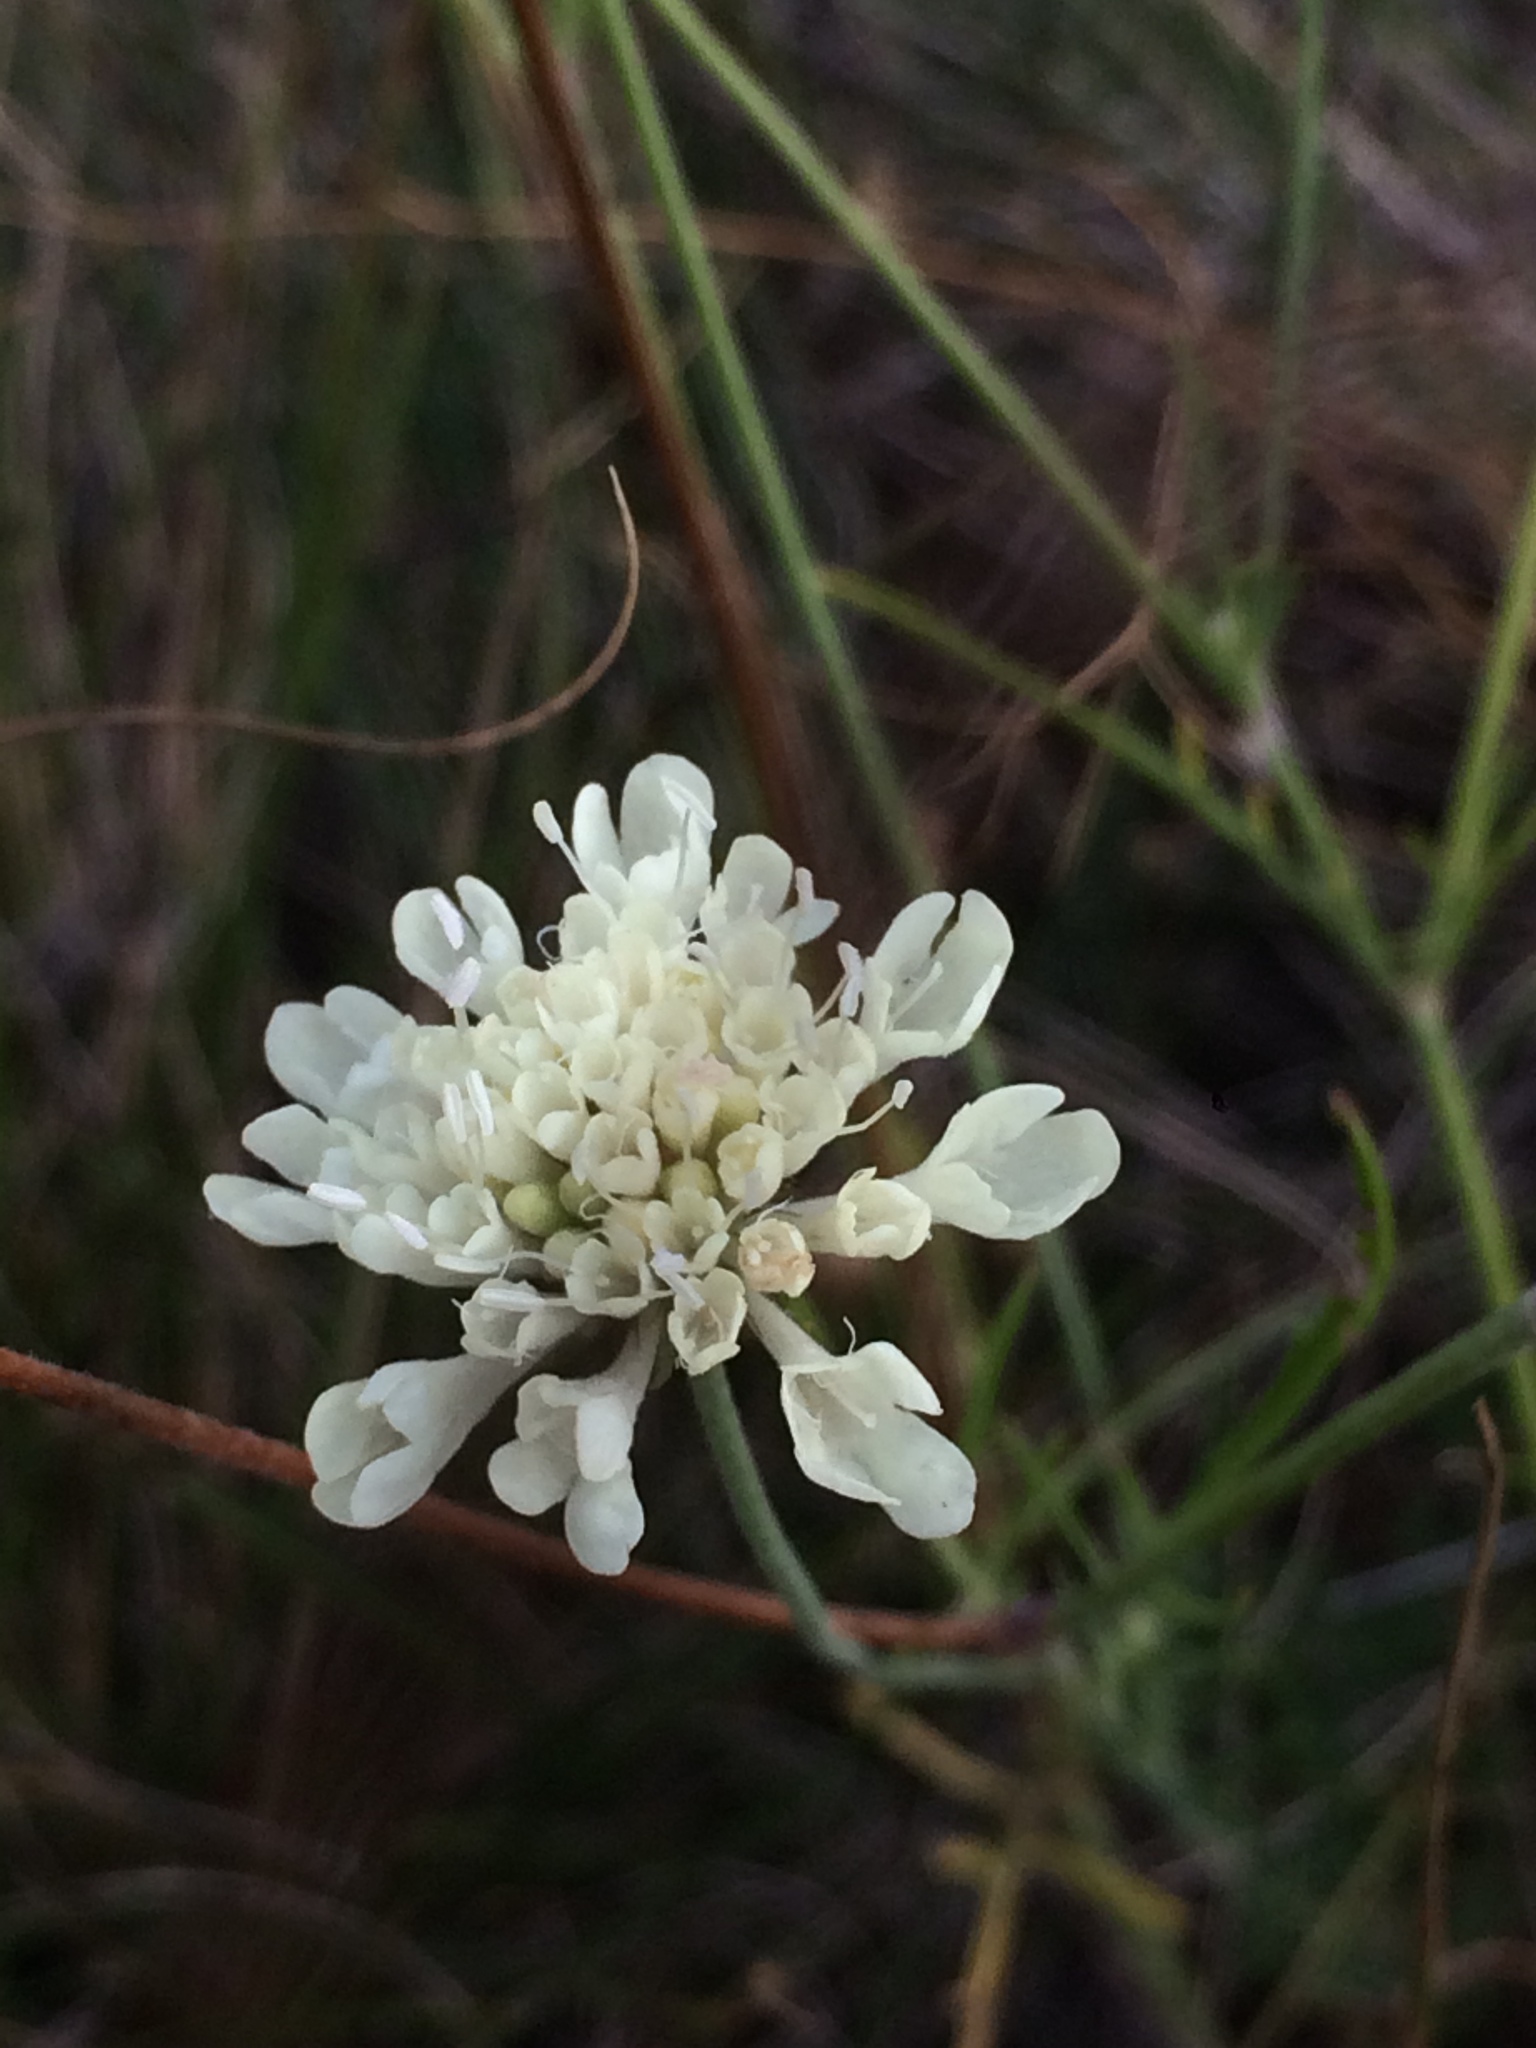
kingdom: Plantae
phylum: Tracheophyta
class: Magnoliopsida
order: Dipsacales
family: Caprifoliaceae
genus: Scabiosa
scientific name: Scabiosa ochroleuca
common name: Cream pincushions
